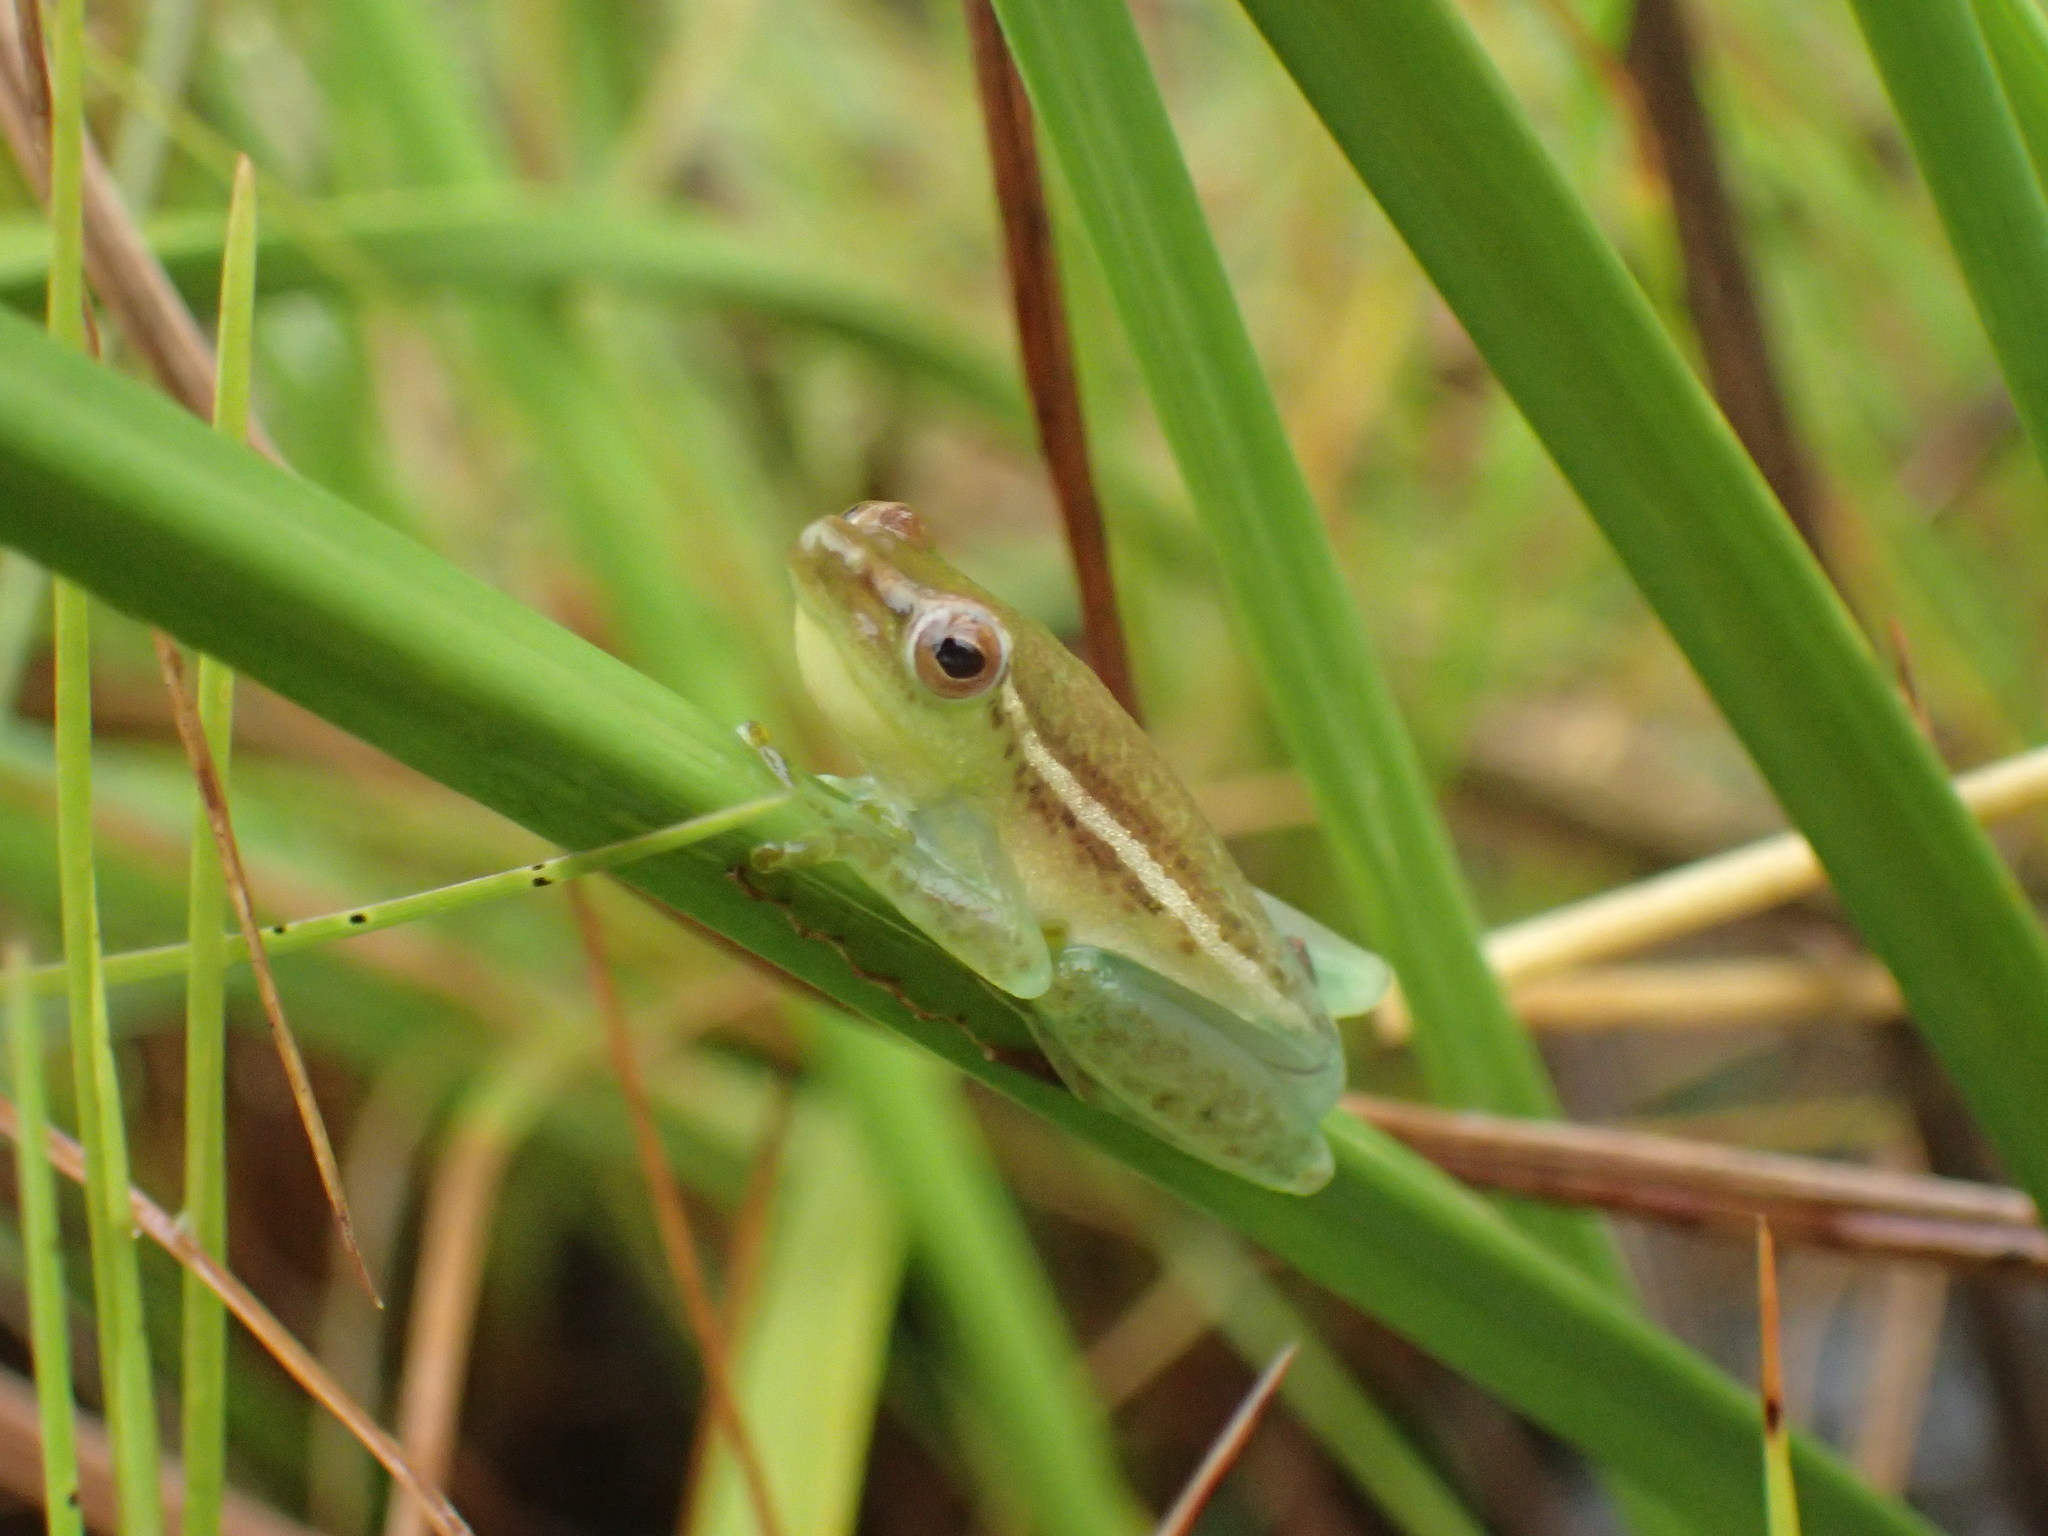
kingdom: Animalia
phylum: Chordata
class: Amphibia
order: Anura
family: Hyperoliidae
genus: Hyperolius
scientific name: Hyperolius nasicus
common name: Pointed long reed frog
